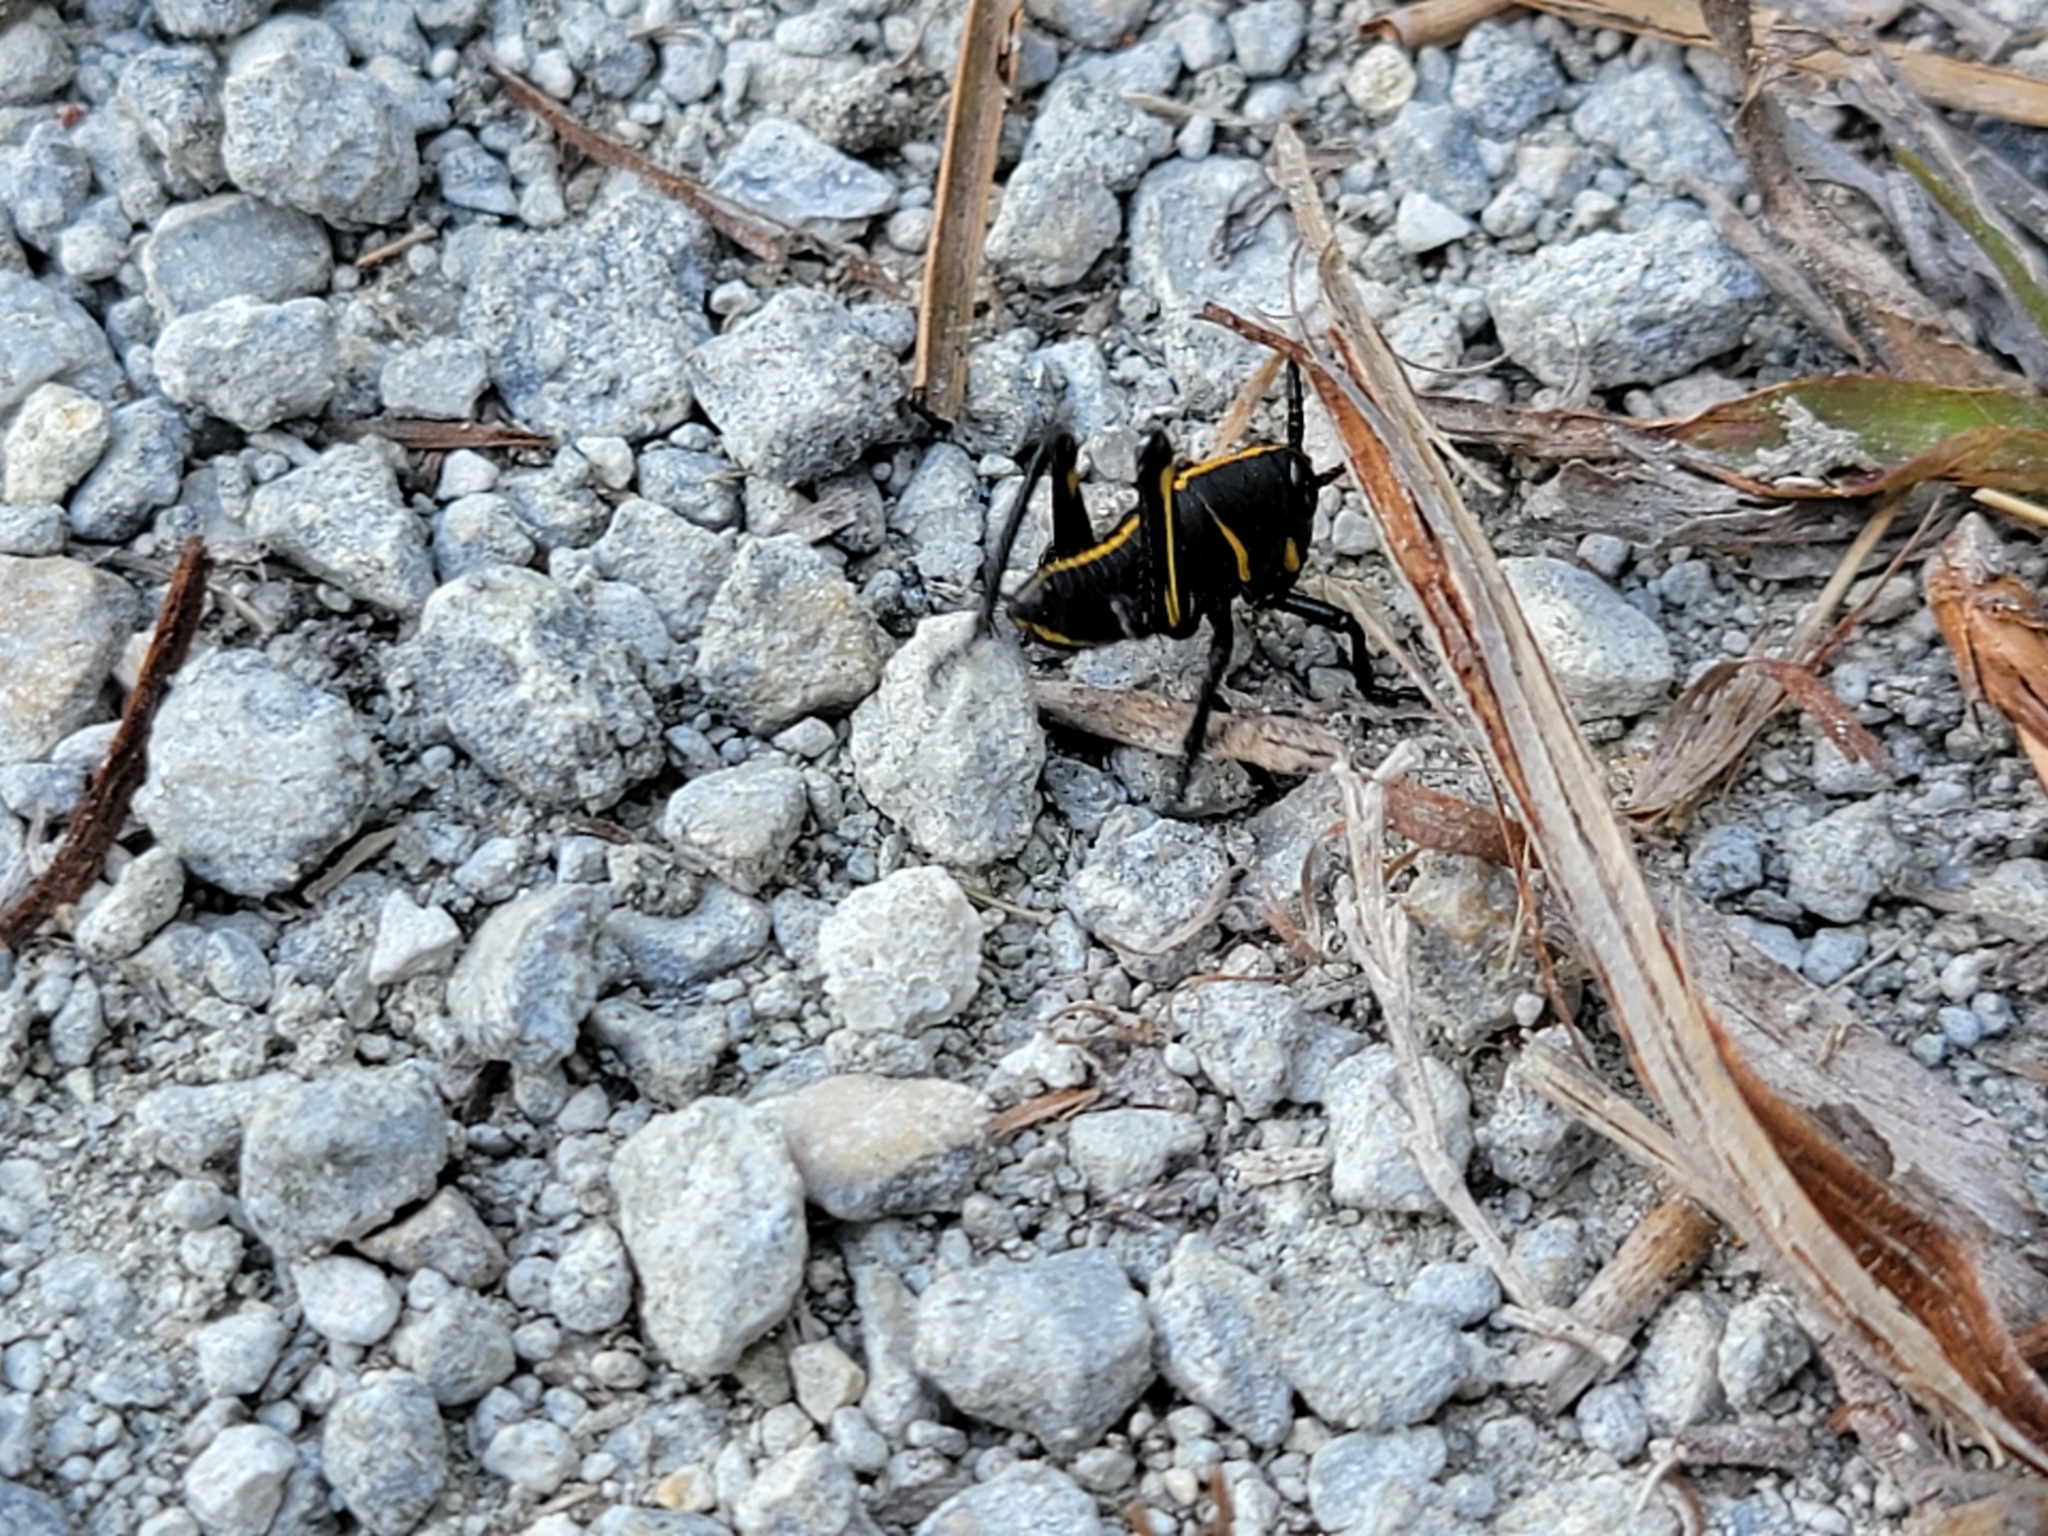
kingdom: Animalia
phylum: Arthropoda
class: Insecta
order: Orthoptera
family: Romaleidae
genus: Romalea
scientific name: Romalea microptera
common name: Eastern lubber grasshopper
